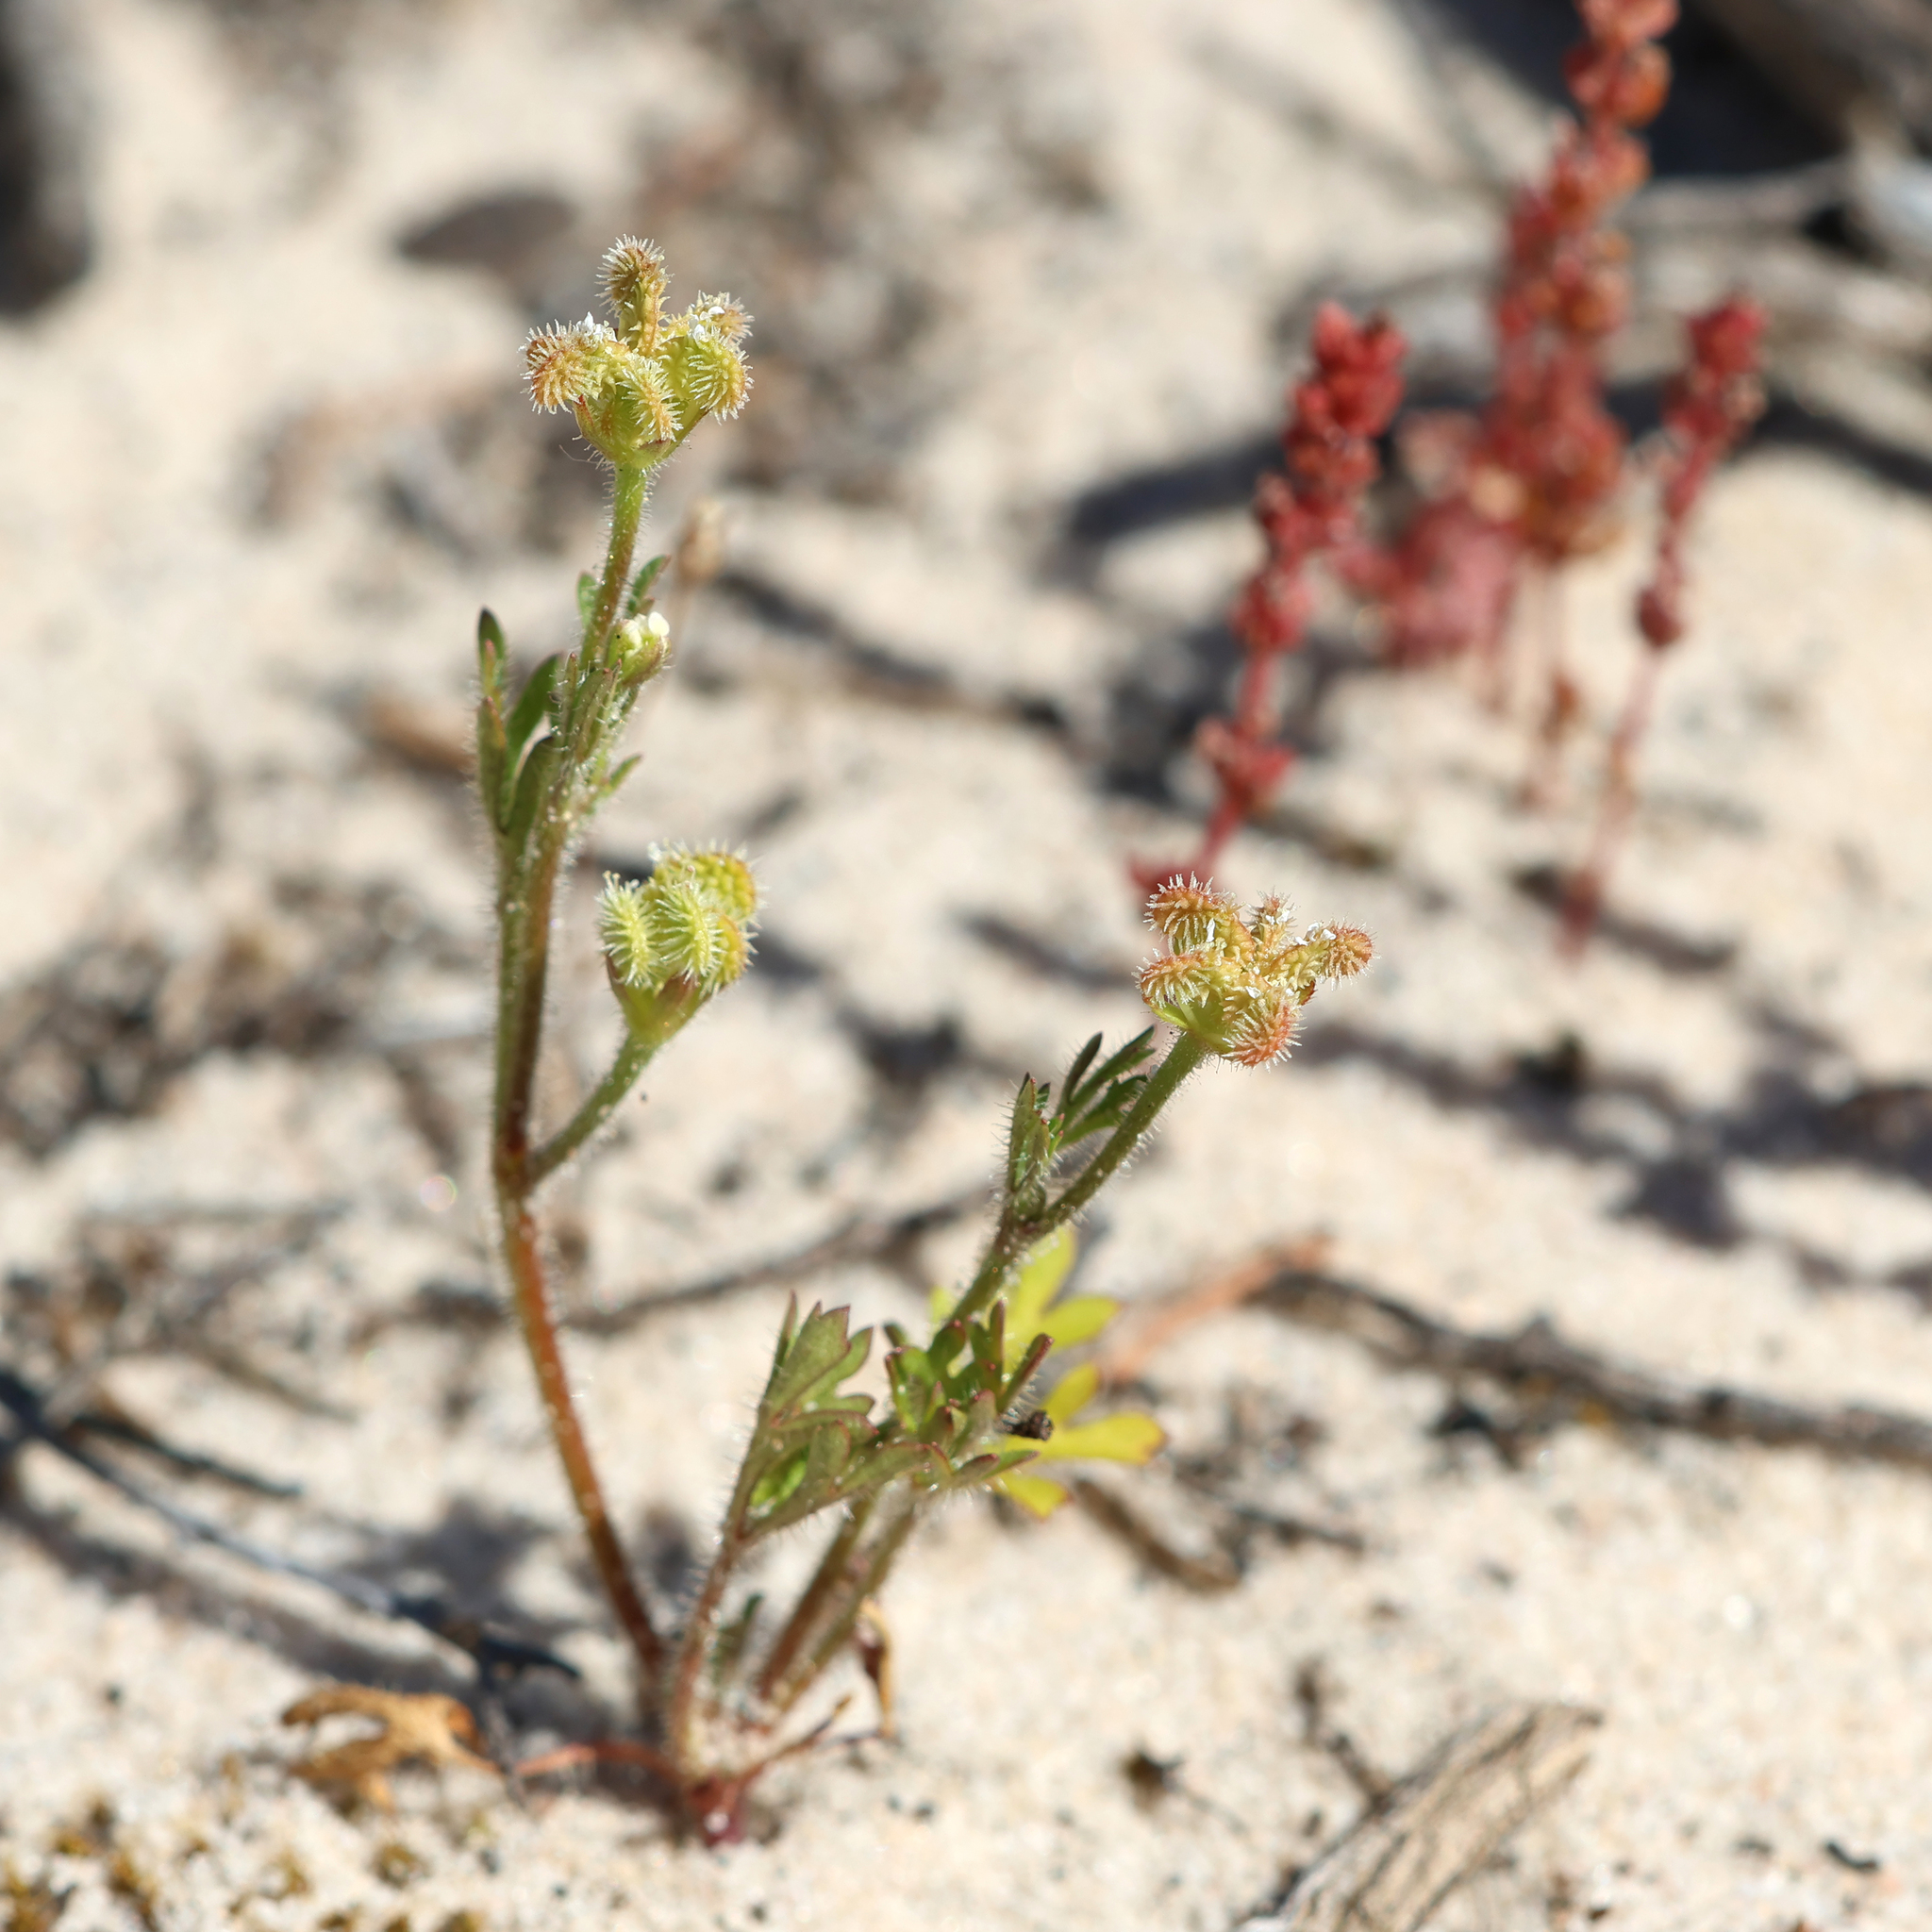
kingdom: Plantae
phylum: Tracheophyta
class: Magnoliopsida
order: Apiales
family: Araliaceae
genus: Trachymene
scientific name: Trachymene pilosa
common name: Dwarf trachymene
